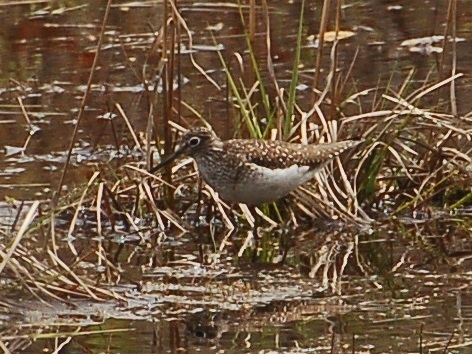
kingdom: Animalia
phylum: Chordata
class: Aves
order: Charadriiformes
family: Scolopacidae
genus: Tringa
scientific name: Tringa solitaria
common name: Solitary sandpiper
